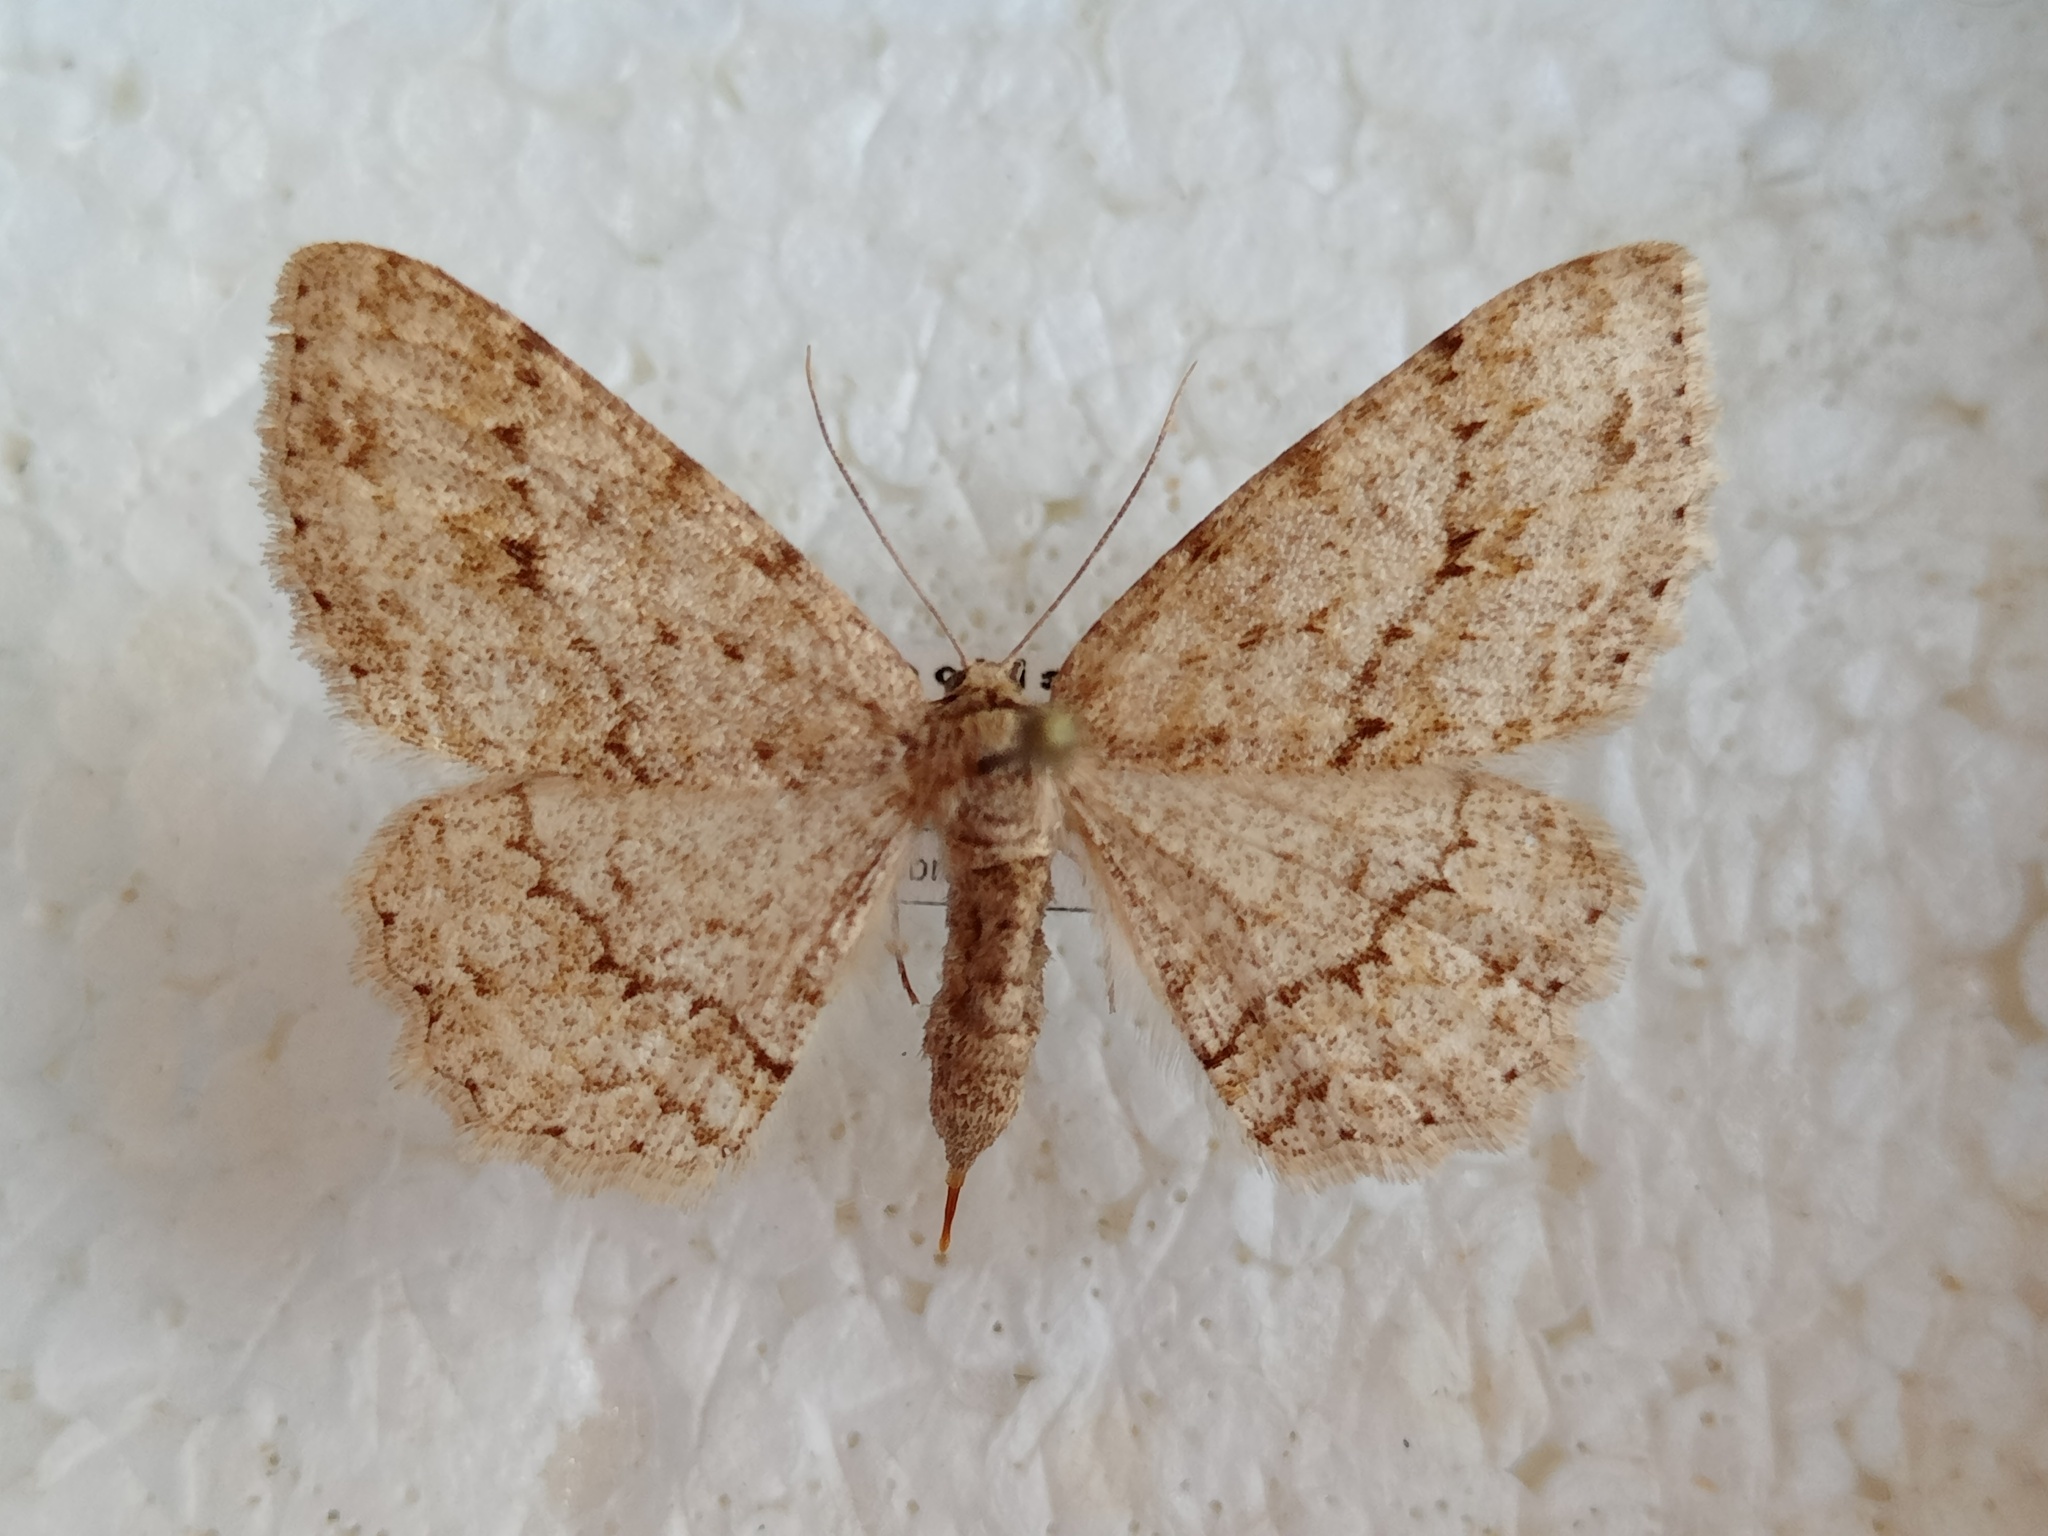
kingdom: Animalia
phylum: Arthropoda
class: Insecta
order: Lepidoptera
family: Geometridae
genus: Ectropis
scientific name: Ectropis crepuscularia
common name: Engrailed
